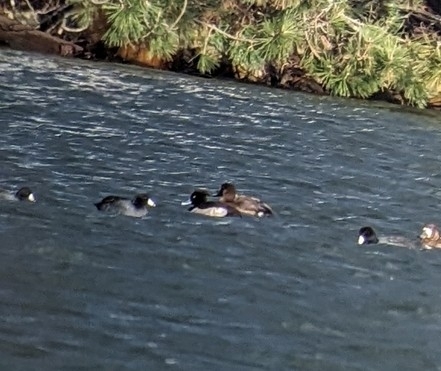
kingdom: Animalia
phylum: Chordata
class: Aves
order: Anseriformes
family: Anatidae
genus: Aythya
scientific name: Aythya fuligula
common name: Tufted duck
